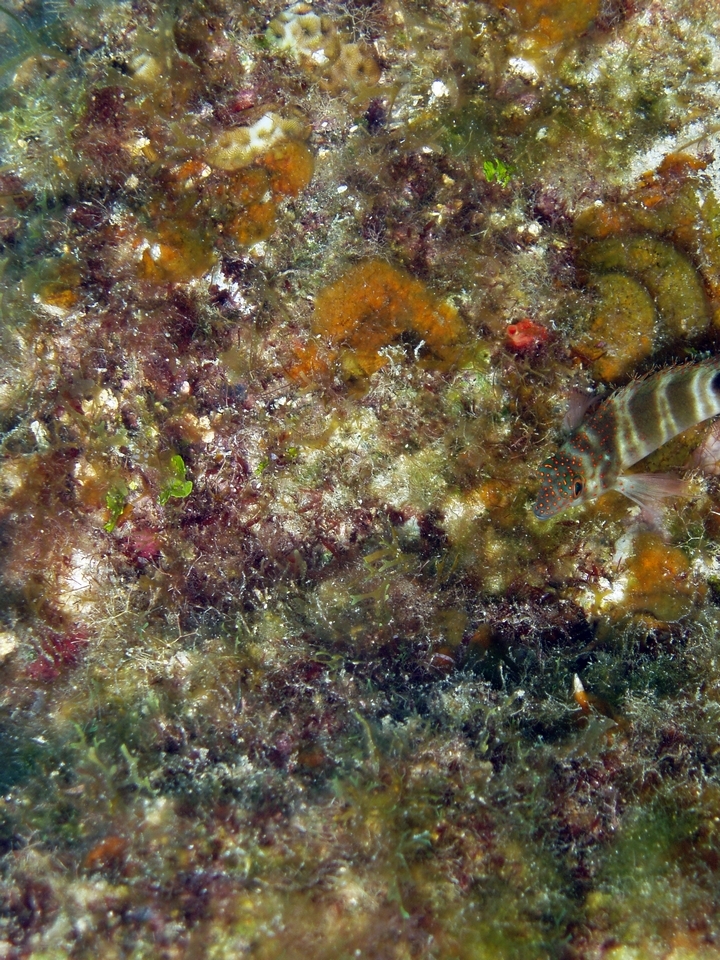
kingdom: Animalia
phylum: Chordata
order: Perciformes
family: Cirrhitidae
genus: Amblycirrhitus
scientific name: Amblycirrhitus pinos
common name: Redspotted hawkfish
